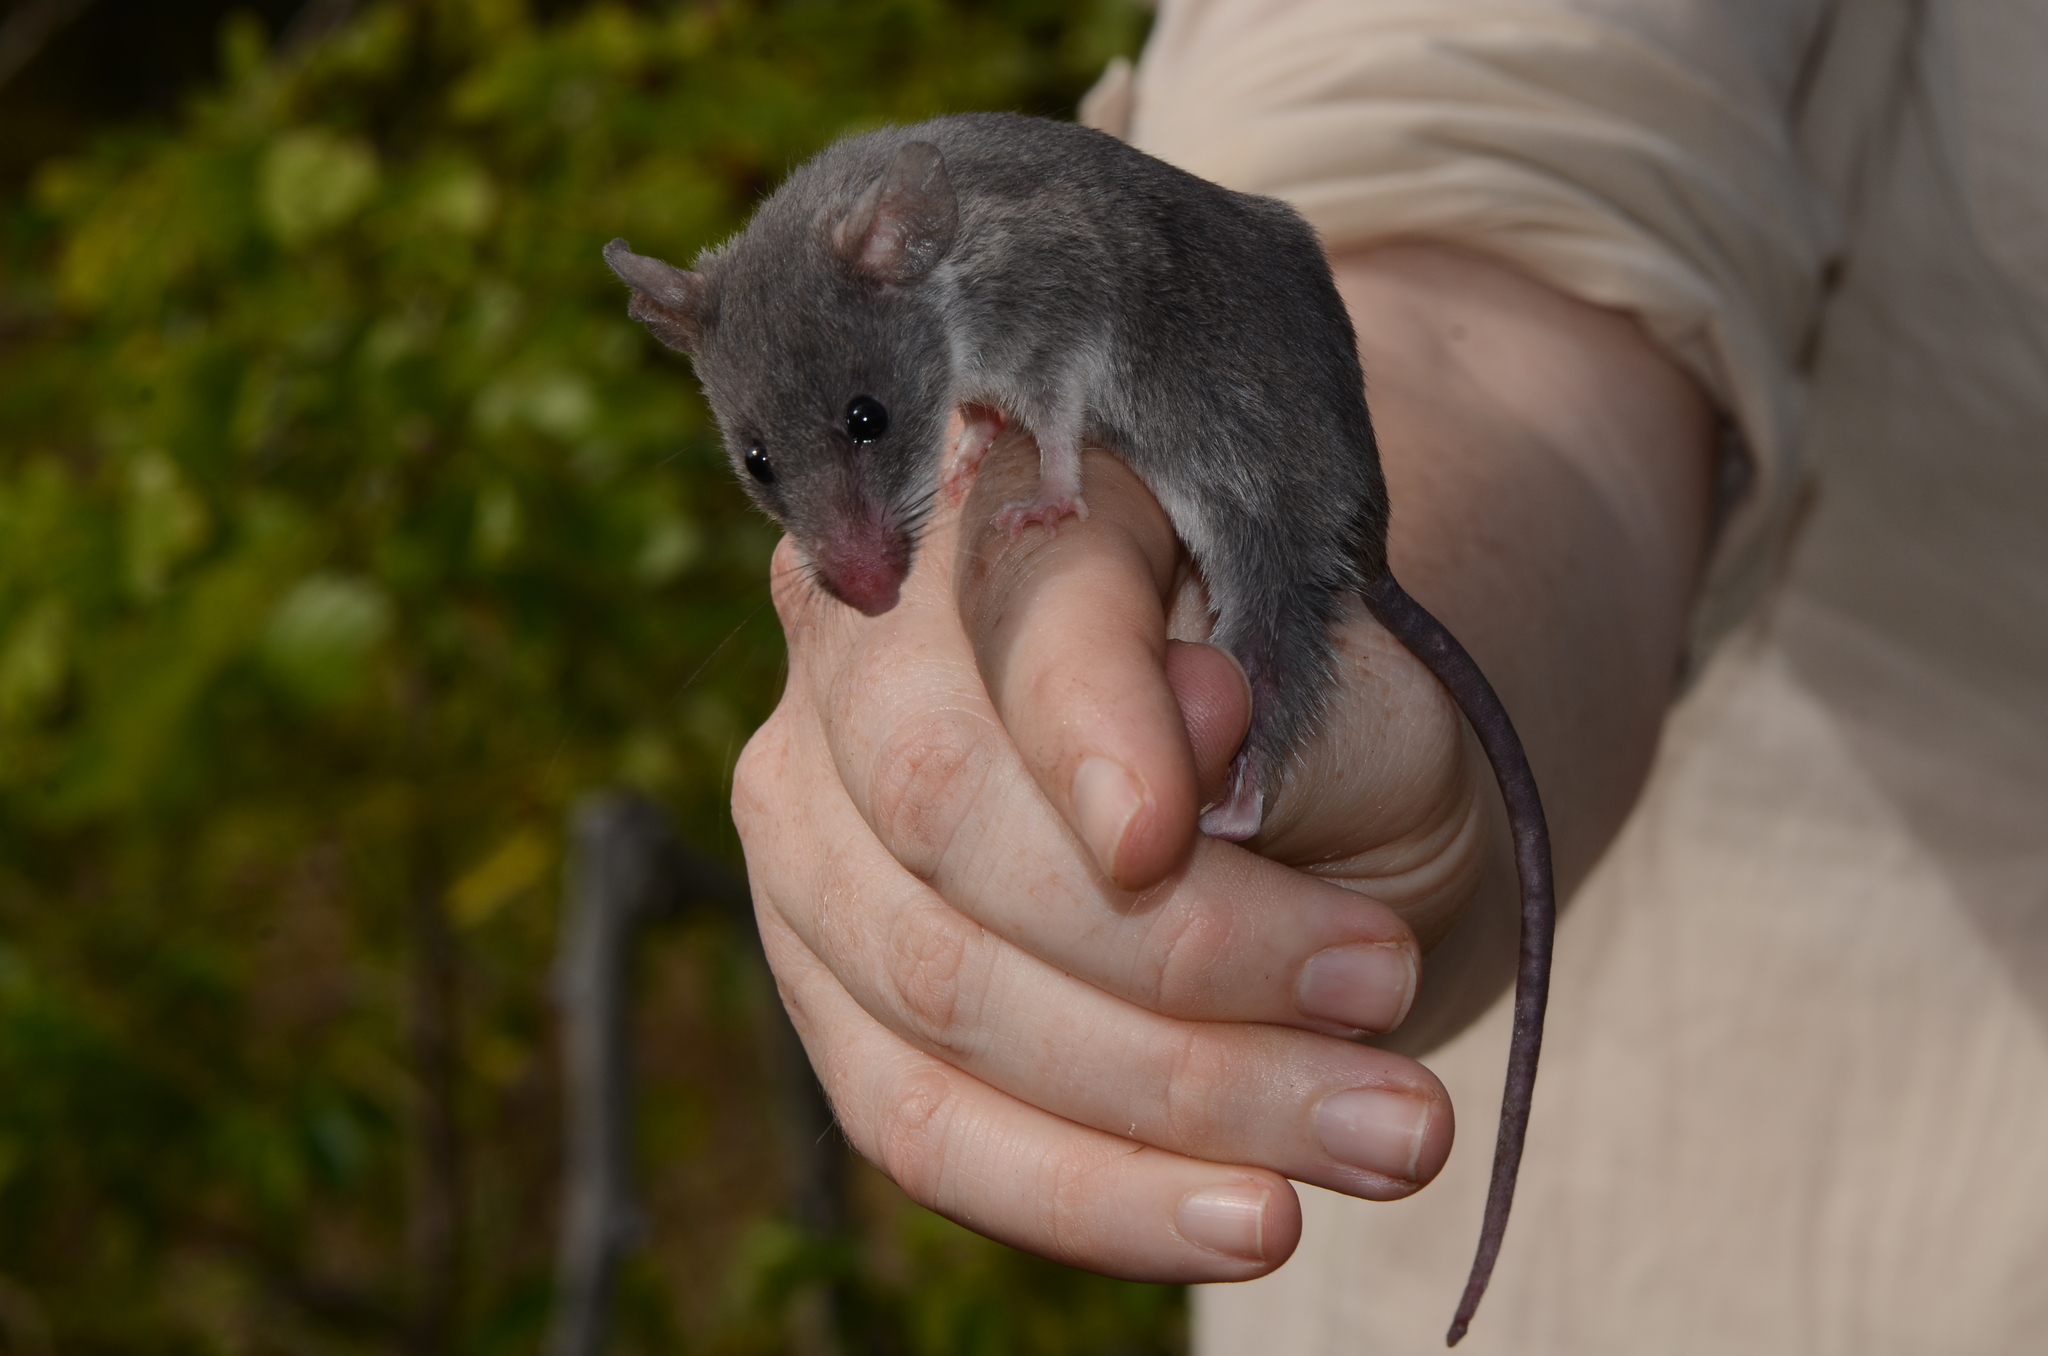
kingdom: Animalia
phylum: Chordata
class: Mammalia
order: Rodentia
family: Nesomyidae
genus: Beamys
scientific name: Beamys hindei
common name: Lesser hamster-rat, long-tailed pouched rat
